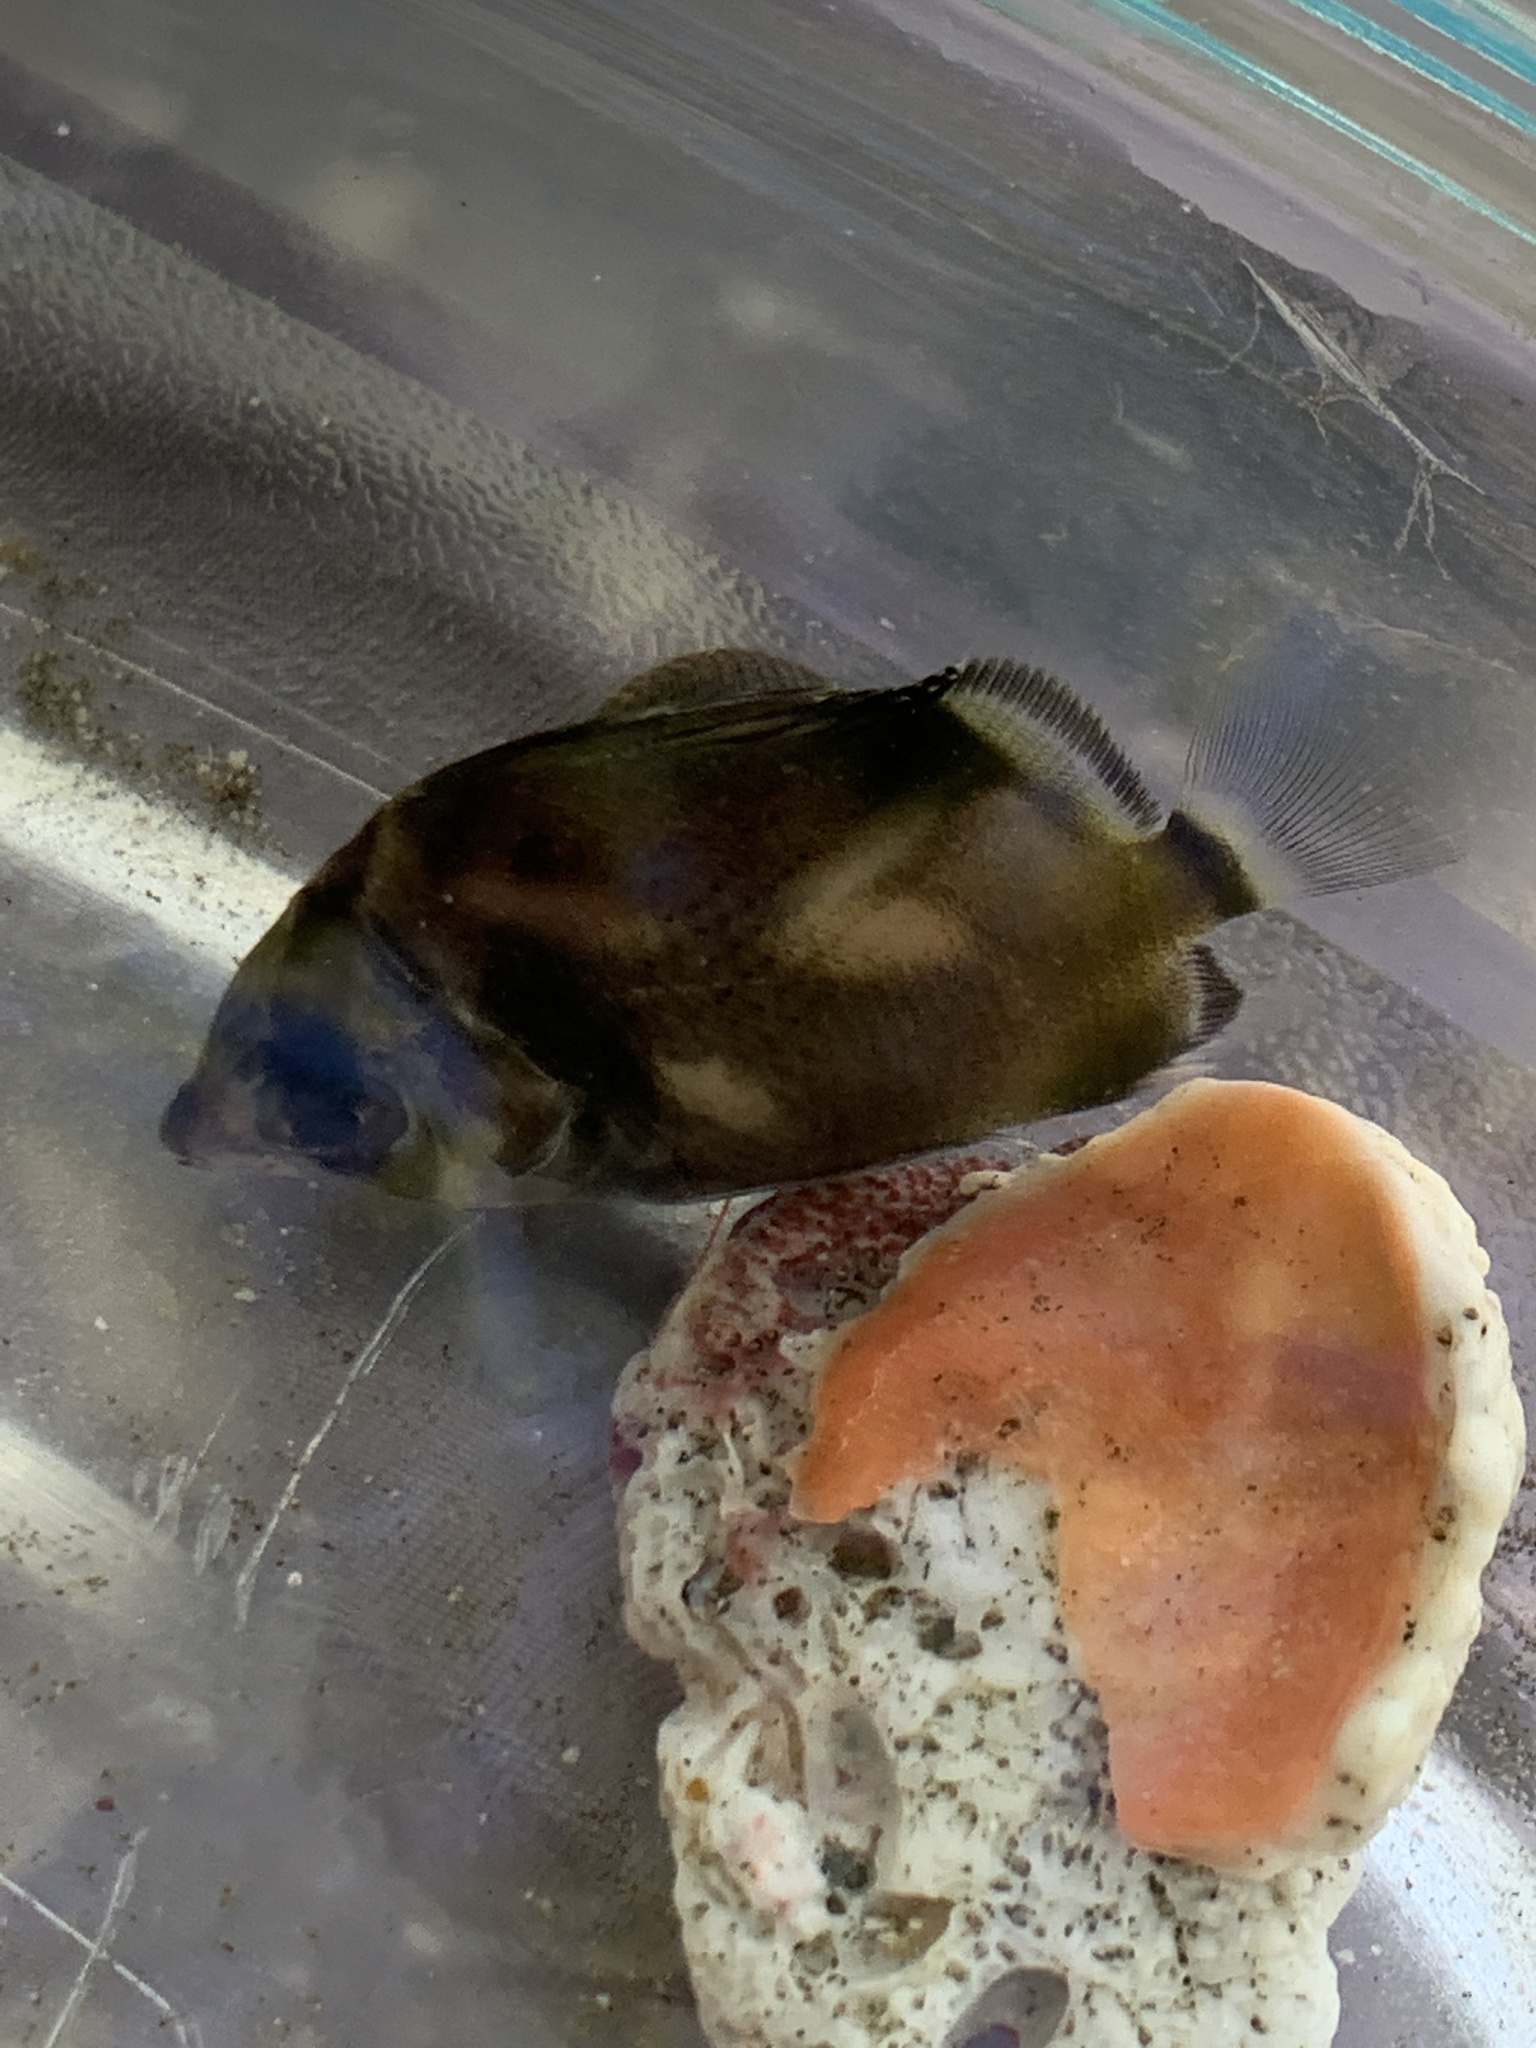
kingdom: Animalia
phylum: Chordata
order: Perciformes
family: Chaetodontidae
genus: Chaetodon
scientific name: Chaetodon humeralis
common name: Threebanded butterflyfish
